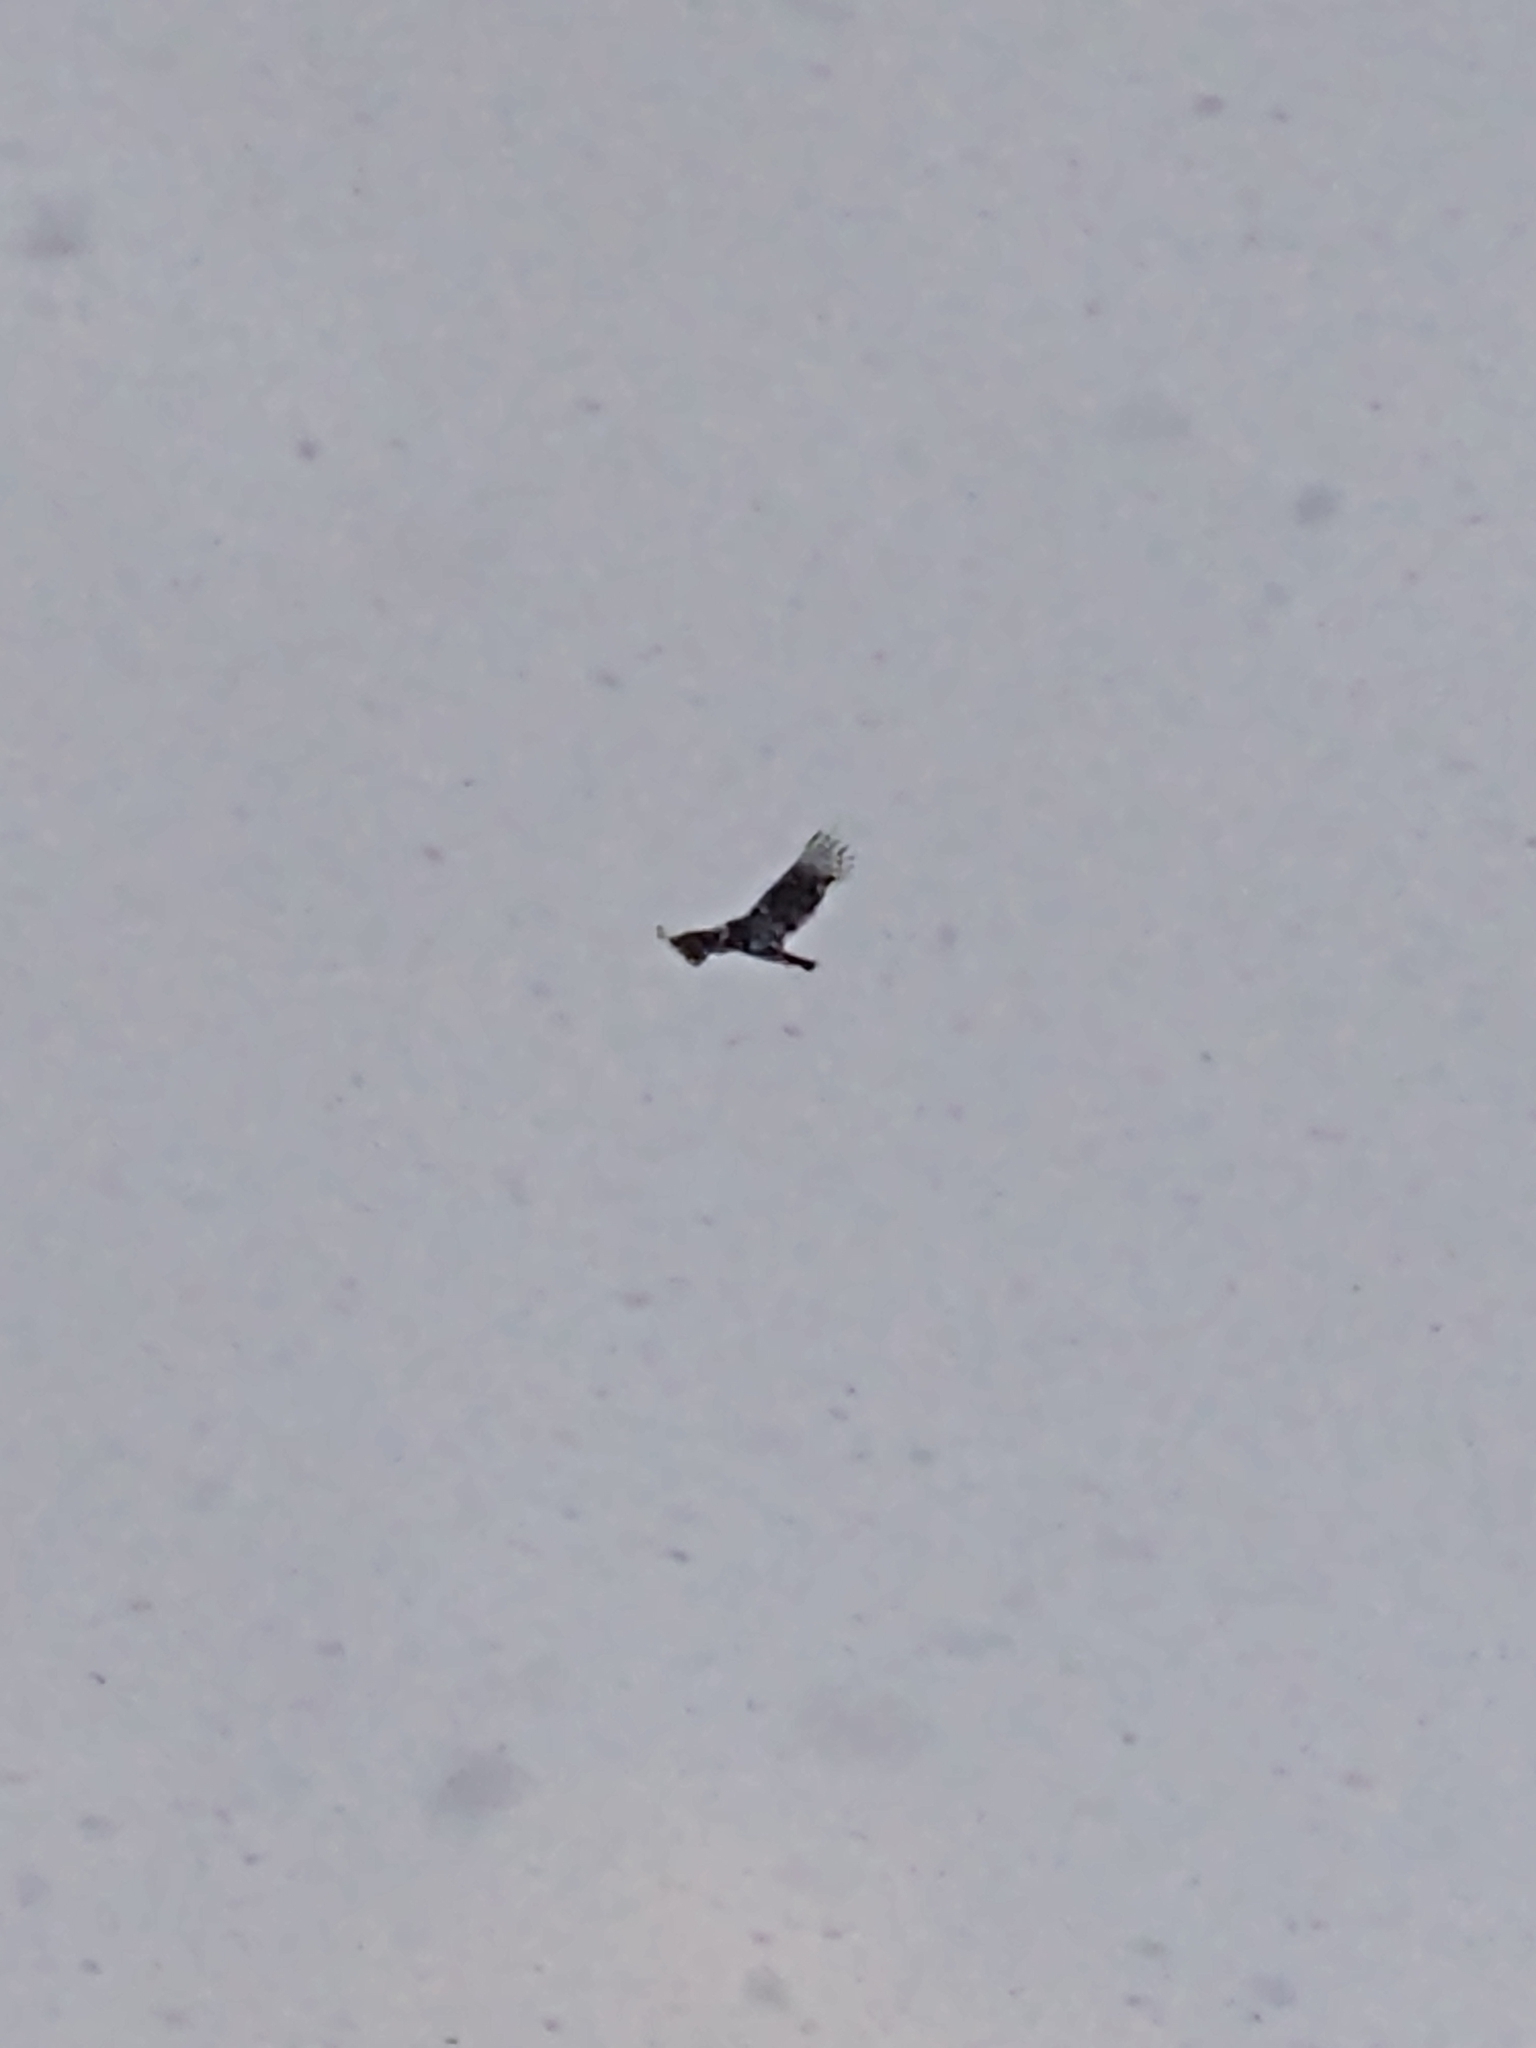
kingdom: Animalia
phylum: Chordata
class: Aves
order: Accipitriformes
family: Cathartidae
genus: Vultur
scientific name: Vultur gryphus
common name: Andean condor
